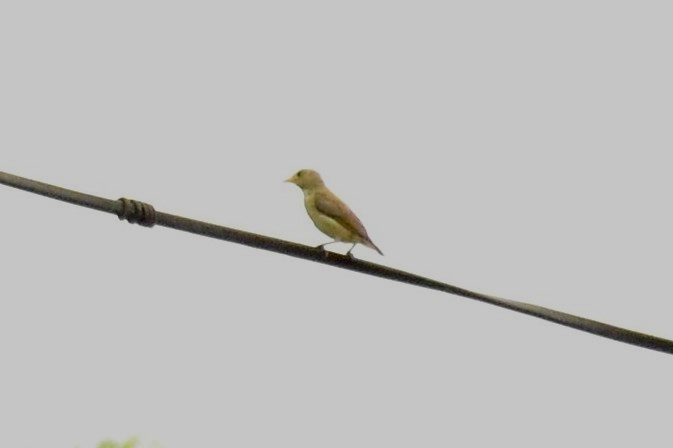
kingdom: Animalia
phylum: Chordata
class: Aves
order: Passeriformes
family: Dicaeidae
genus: Dicaeum
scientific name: Dicaeum erythrorhynchos
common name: Pale-billed flowerpecker
